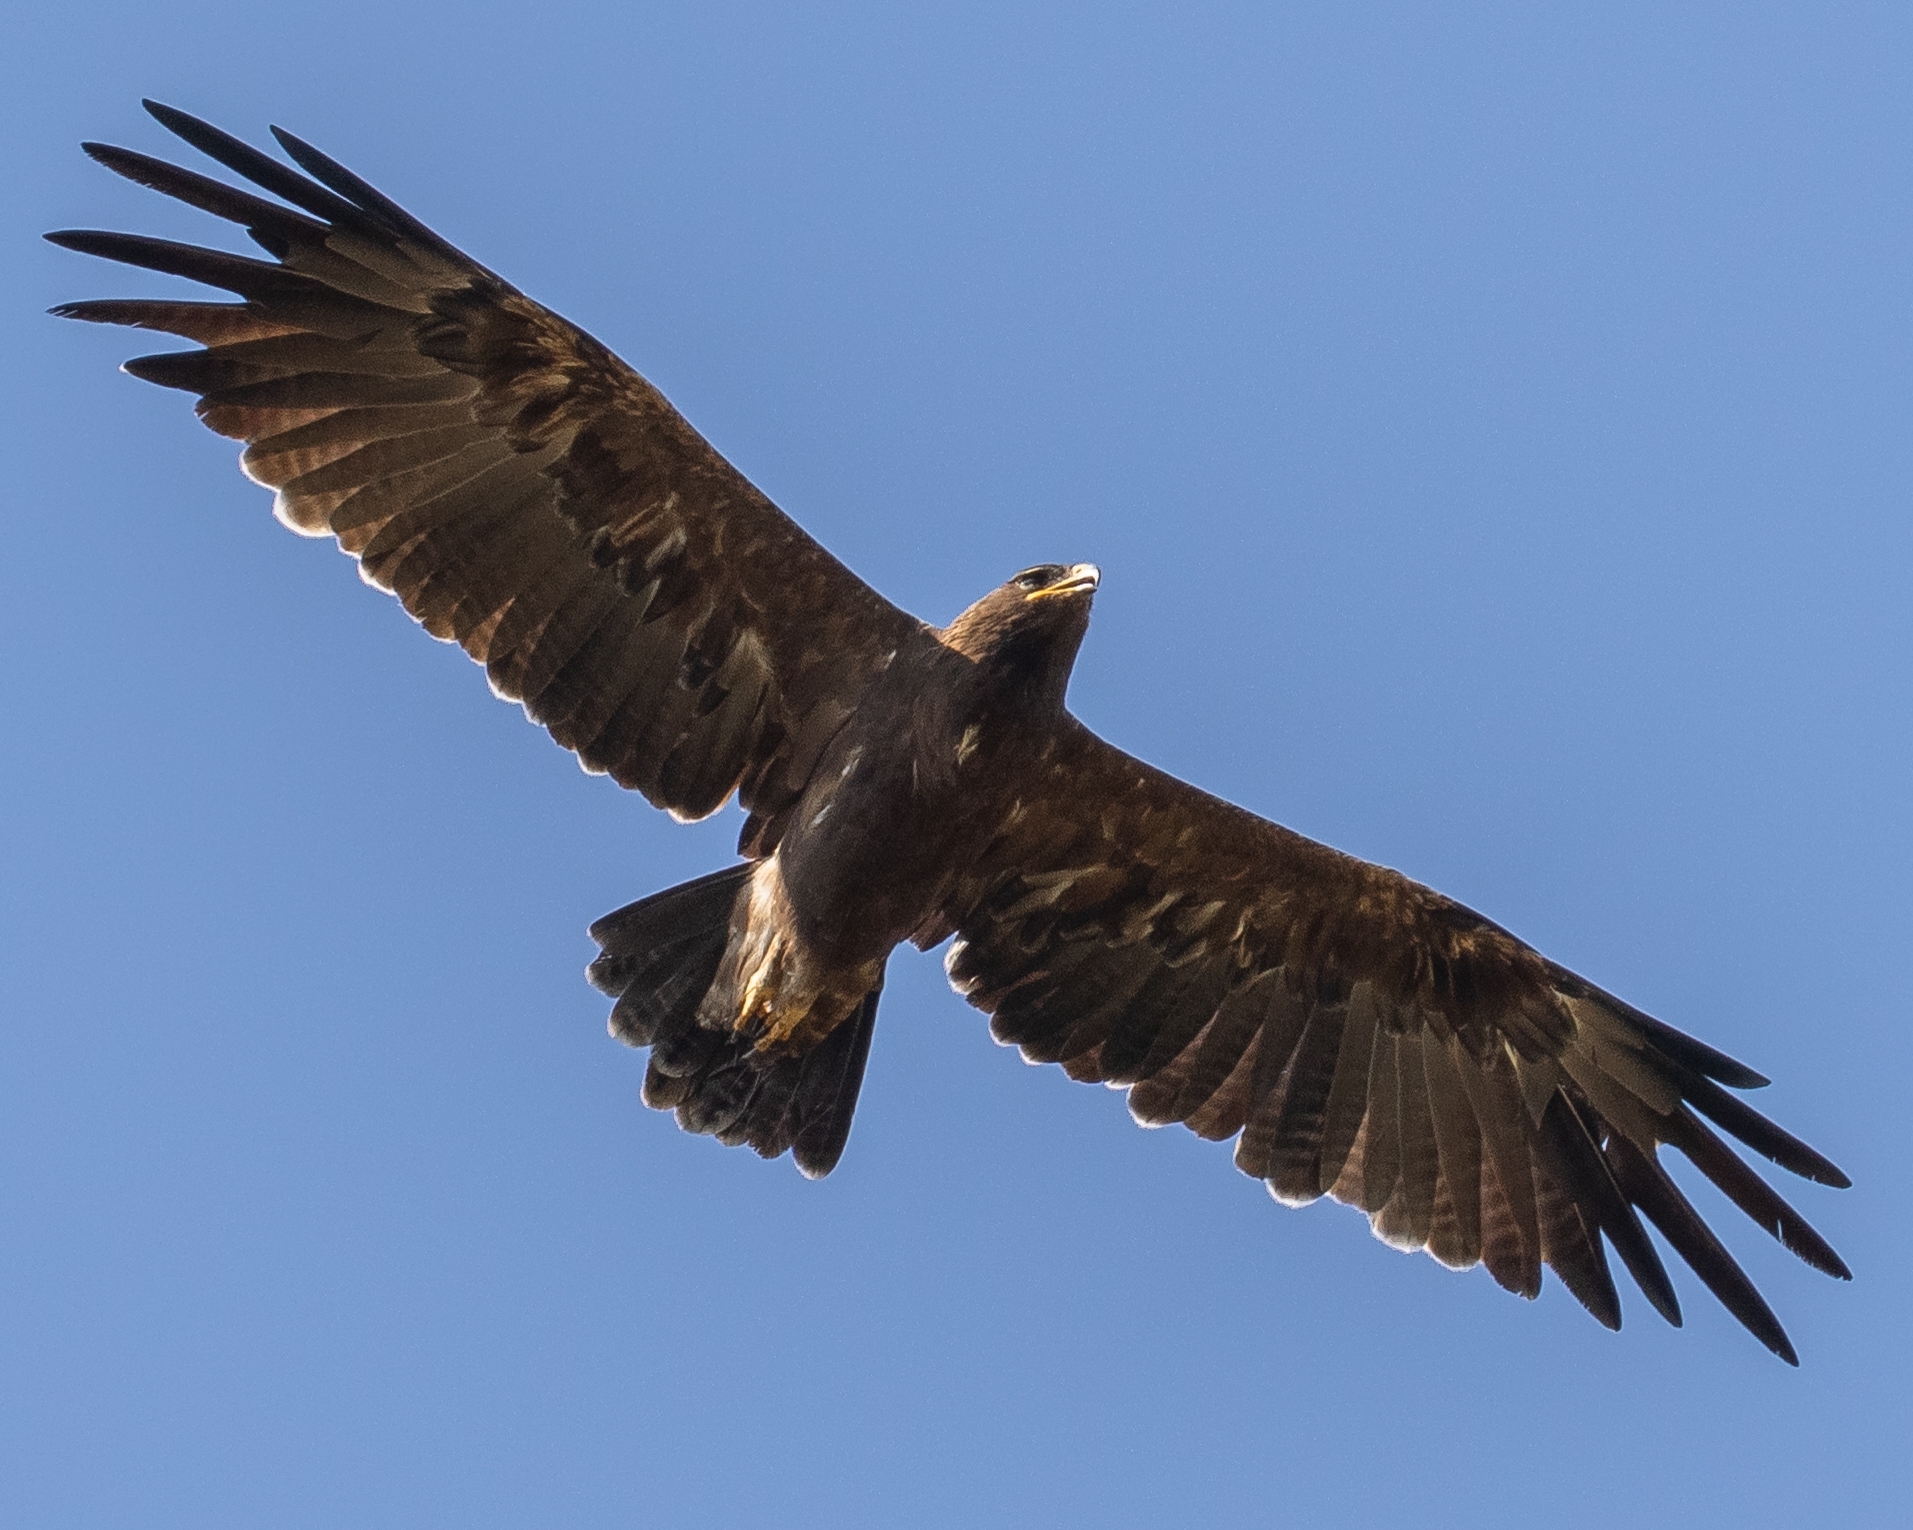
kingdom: Animalia
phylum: Chordata
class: Aves
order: Accipitriformes
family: Accipitridae
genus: Aquila
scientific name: Aquila hastata
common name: Indian spotted eagle
